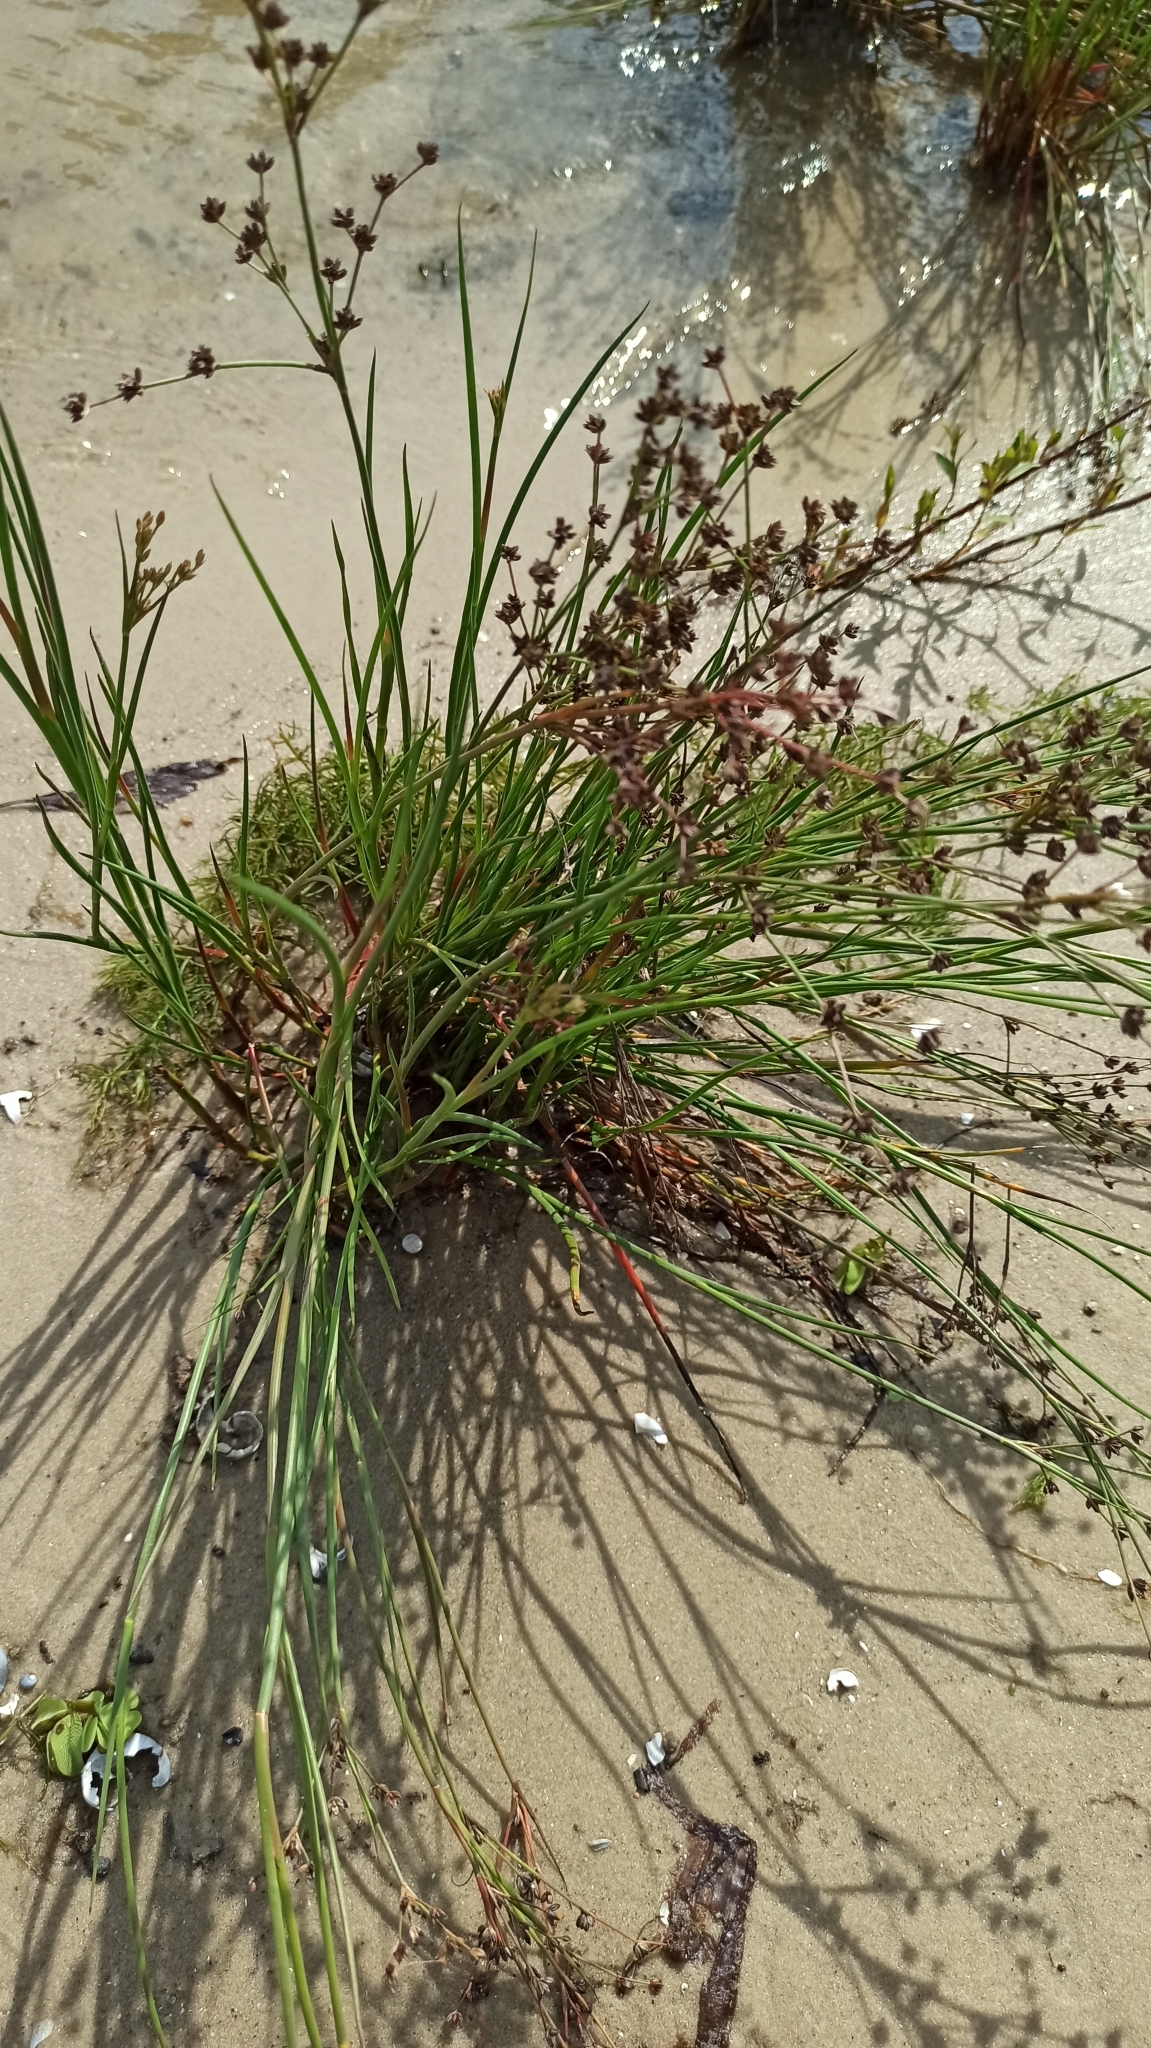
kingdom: Plantae
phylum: Tracheophyta
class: Liliopsida
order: Poales
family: Juncaceae
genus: Juncus
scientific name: Juncus articulatus
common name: Jointed rush
